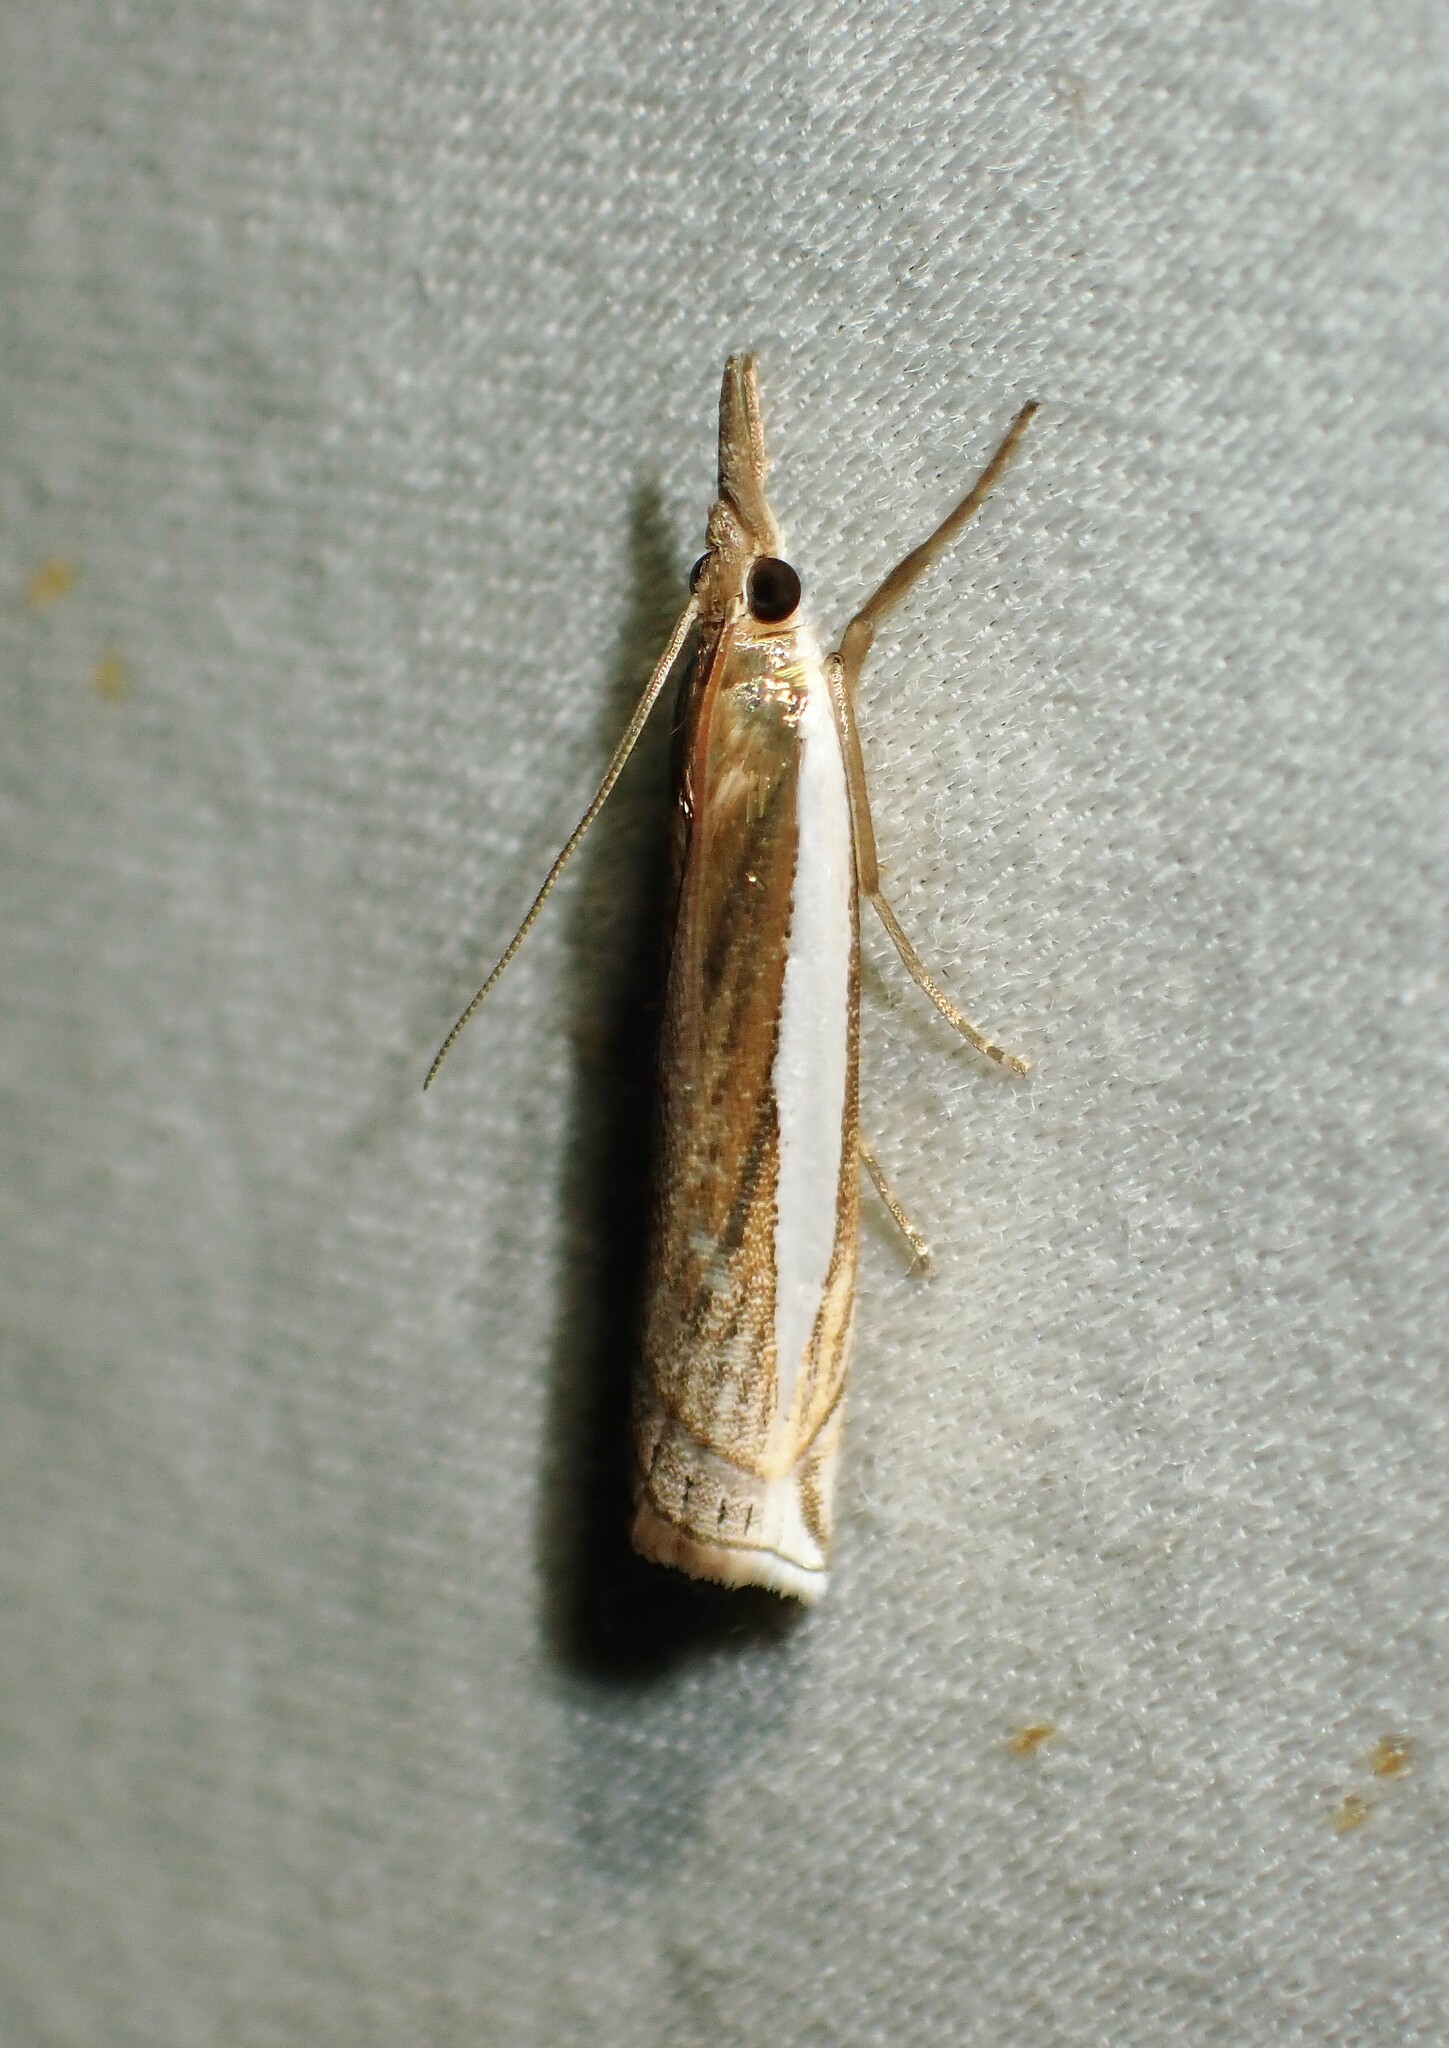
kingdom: Animalia
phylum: Arthropoda
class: Insecta
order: Lepidoptera
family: Crambidae
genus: Crambus
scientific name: Crambus leachellus
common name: Leach's grass-veneer
